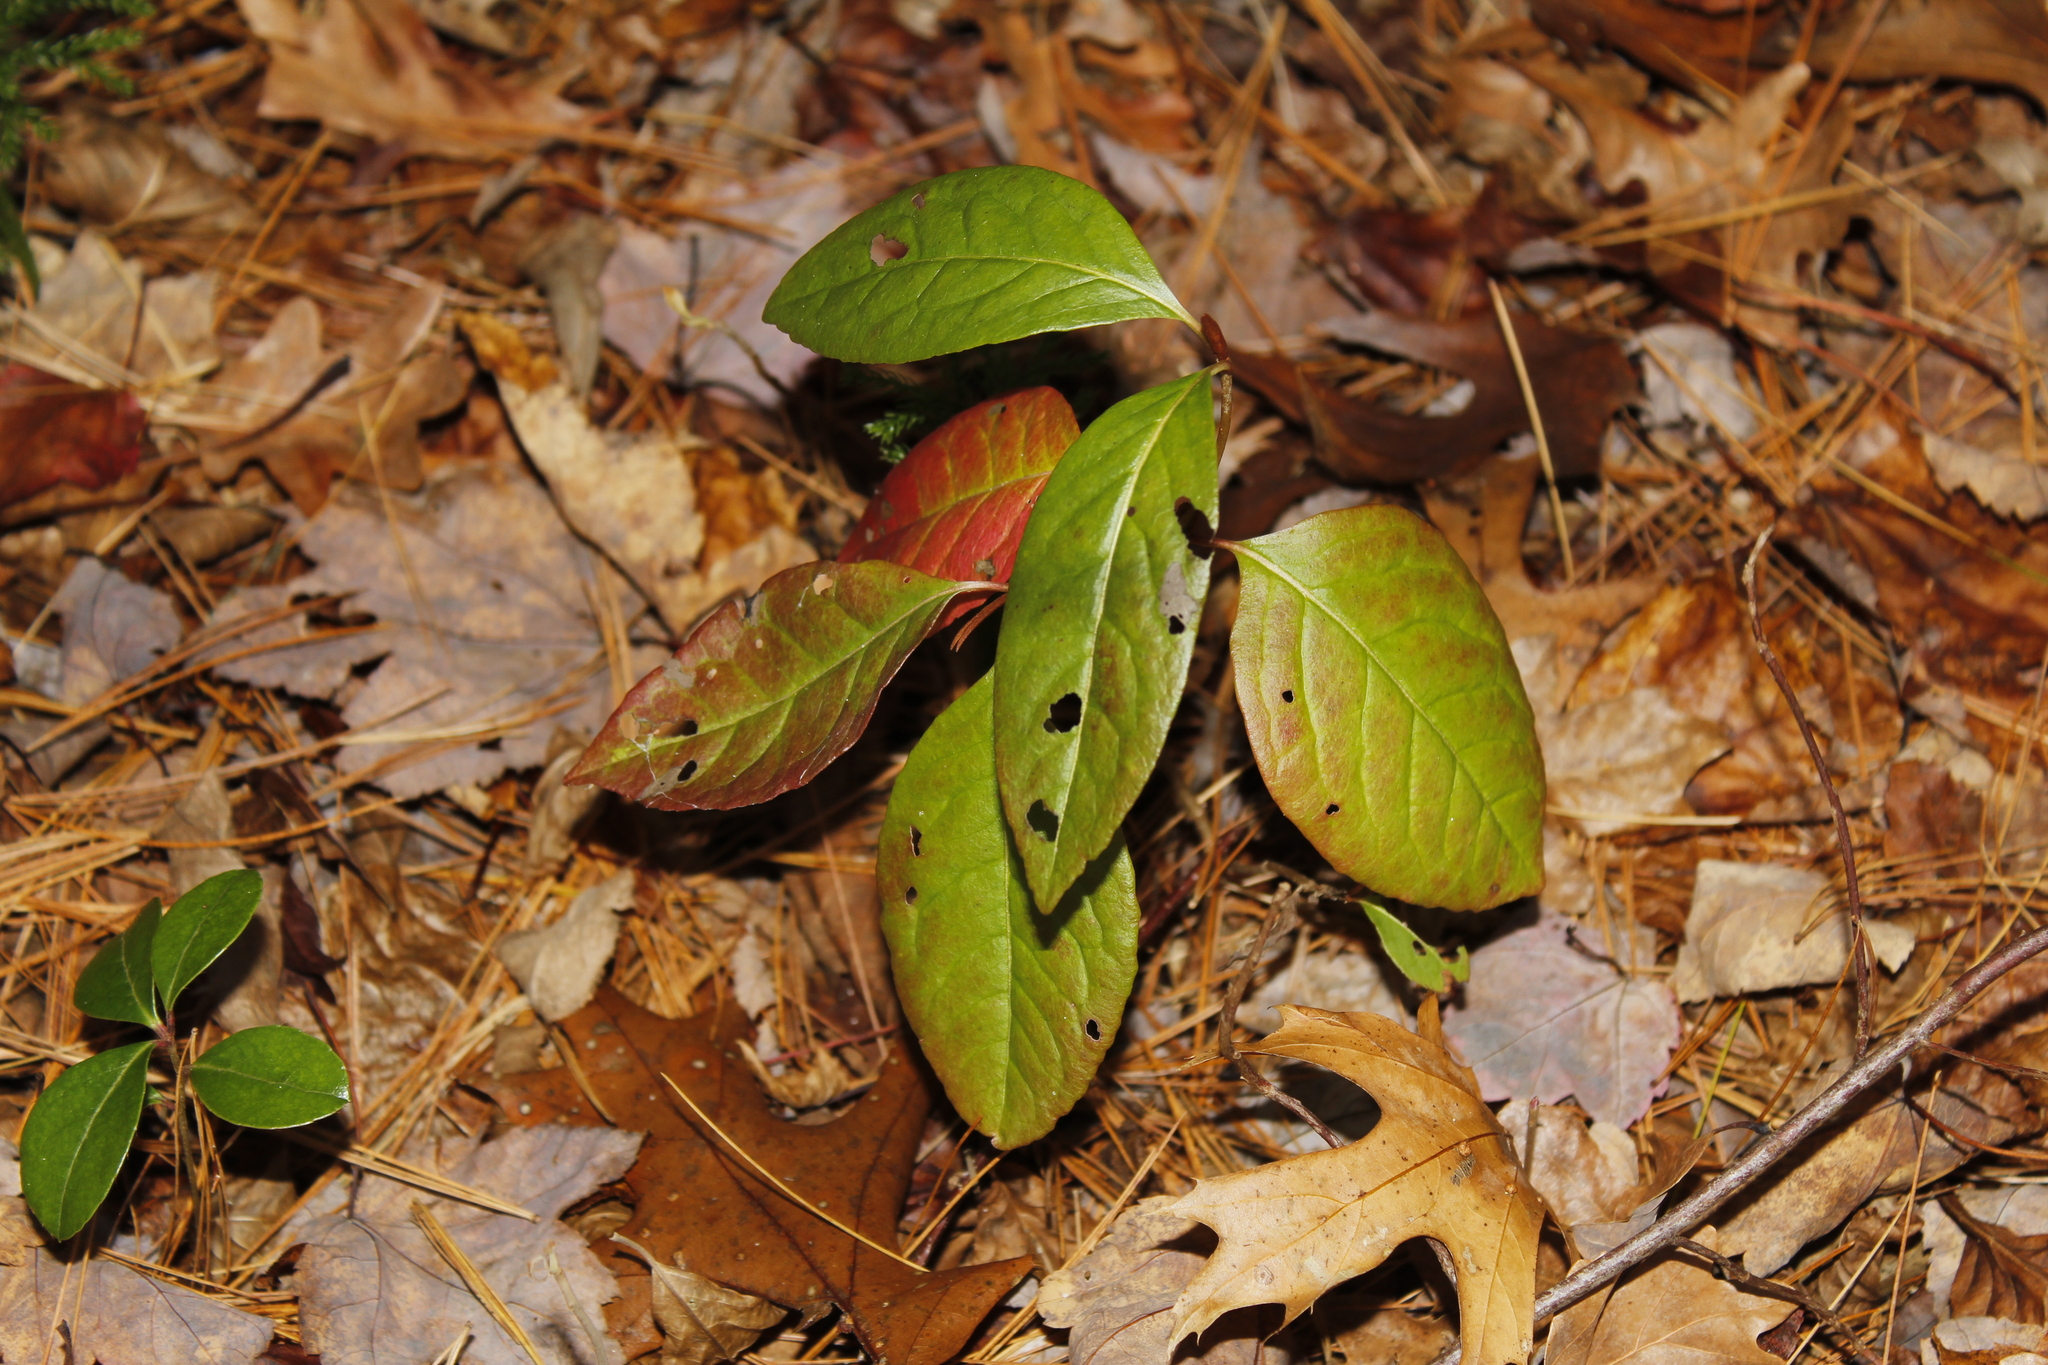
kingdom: Plantae
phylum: Tracheophyta
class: Magnoliopsida
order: Dipsacales
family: Viburnaceae
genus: Viburnum
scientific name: Viburnum cassinoides
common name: Swamp haw
